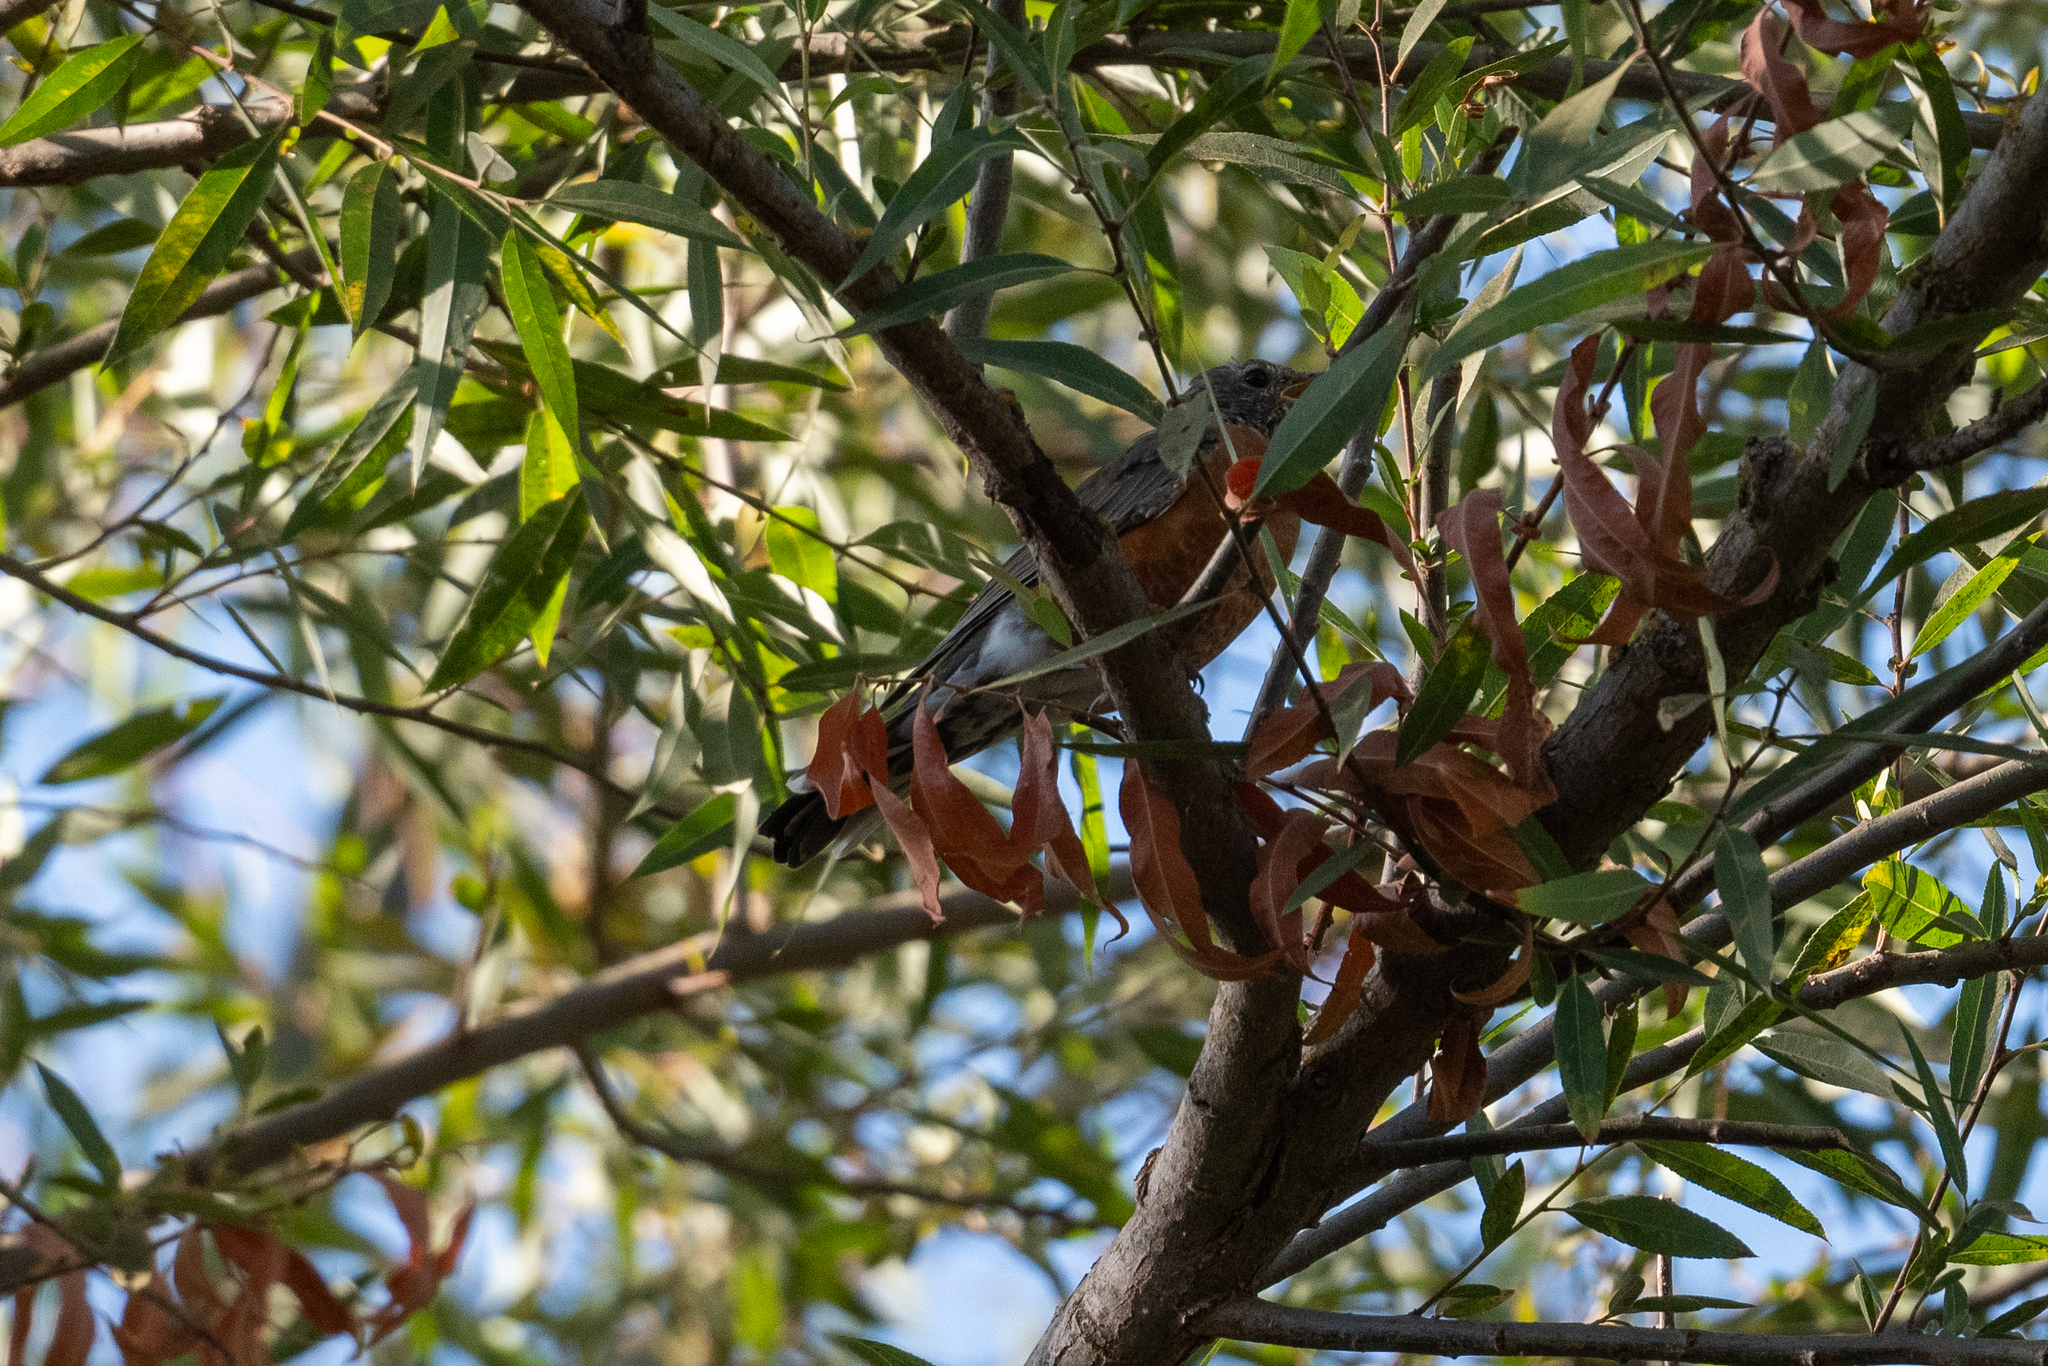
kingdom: Animalia
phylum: Chordata
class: Aves
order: Passeriformes
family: Turdidae
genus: Turdus
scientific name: Turdus migratorius
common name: American robin
